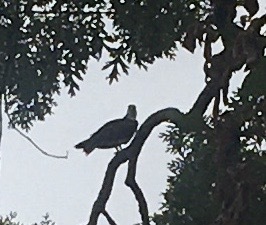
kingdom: Animalia
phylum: Chordata
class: Aves
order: Accipitriformes
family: Pandionidae
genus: Pandion
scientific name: Pandion haliaetus
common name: Osprey
